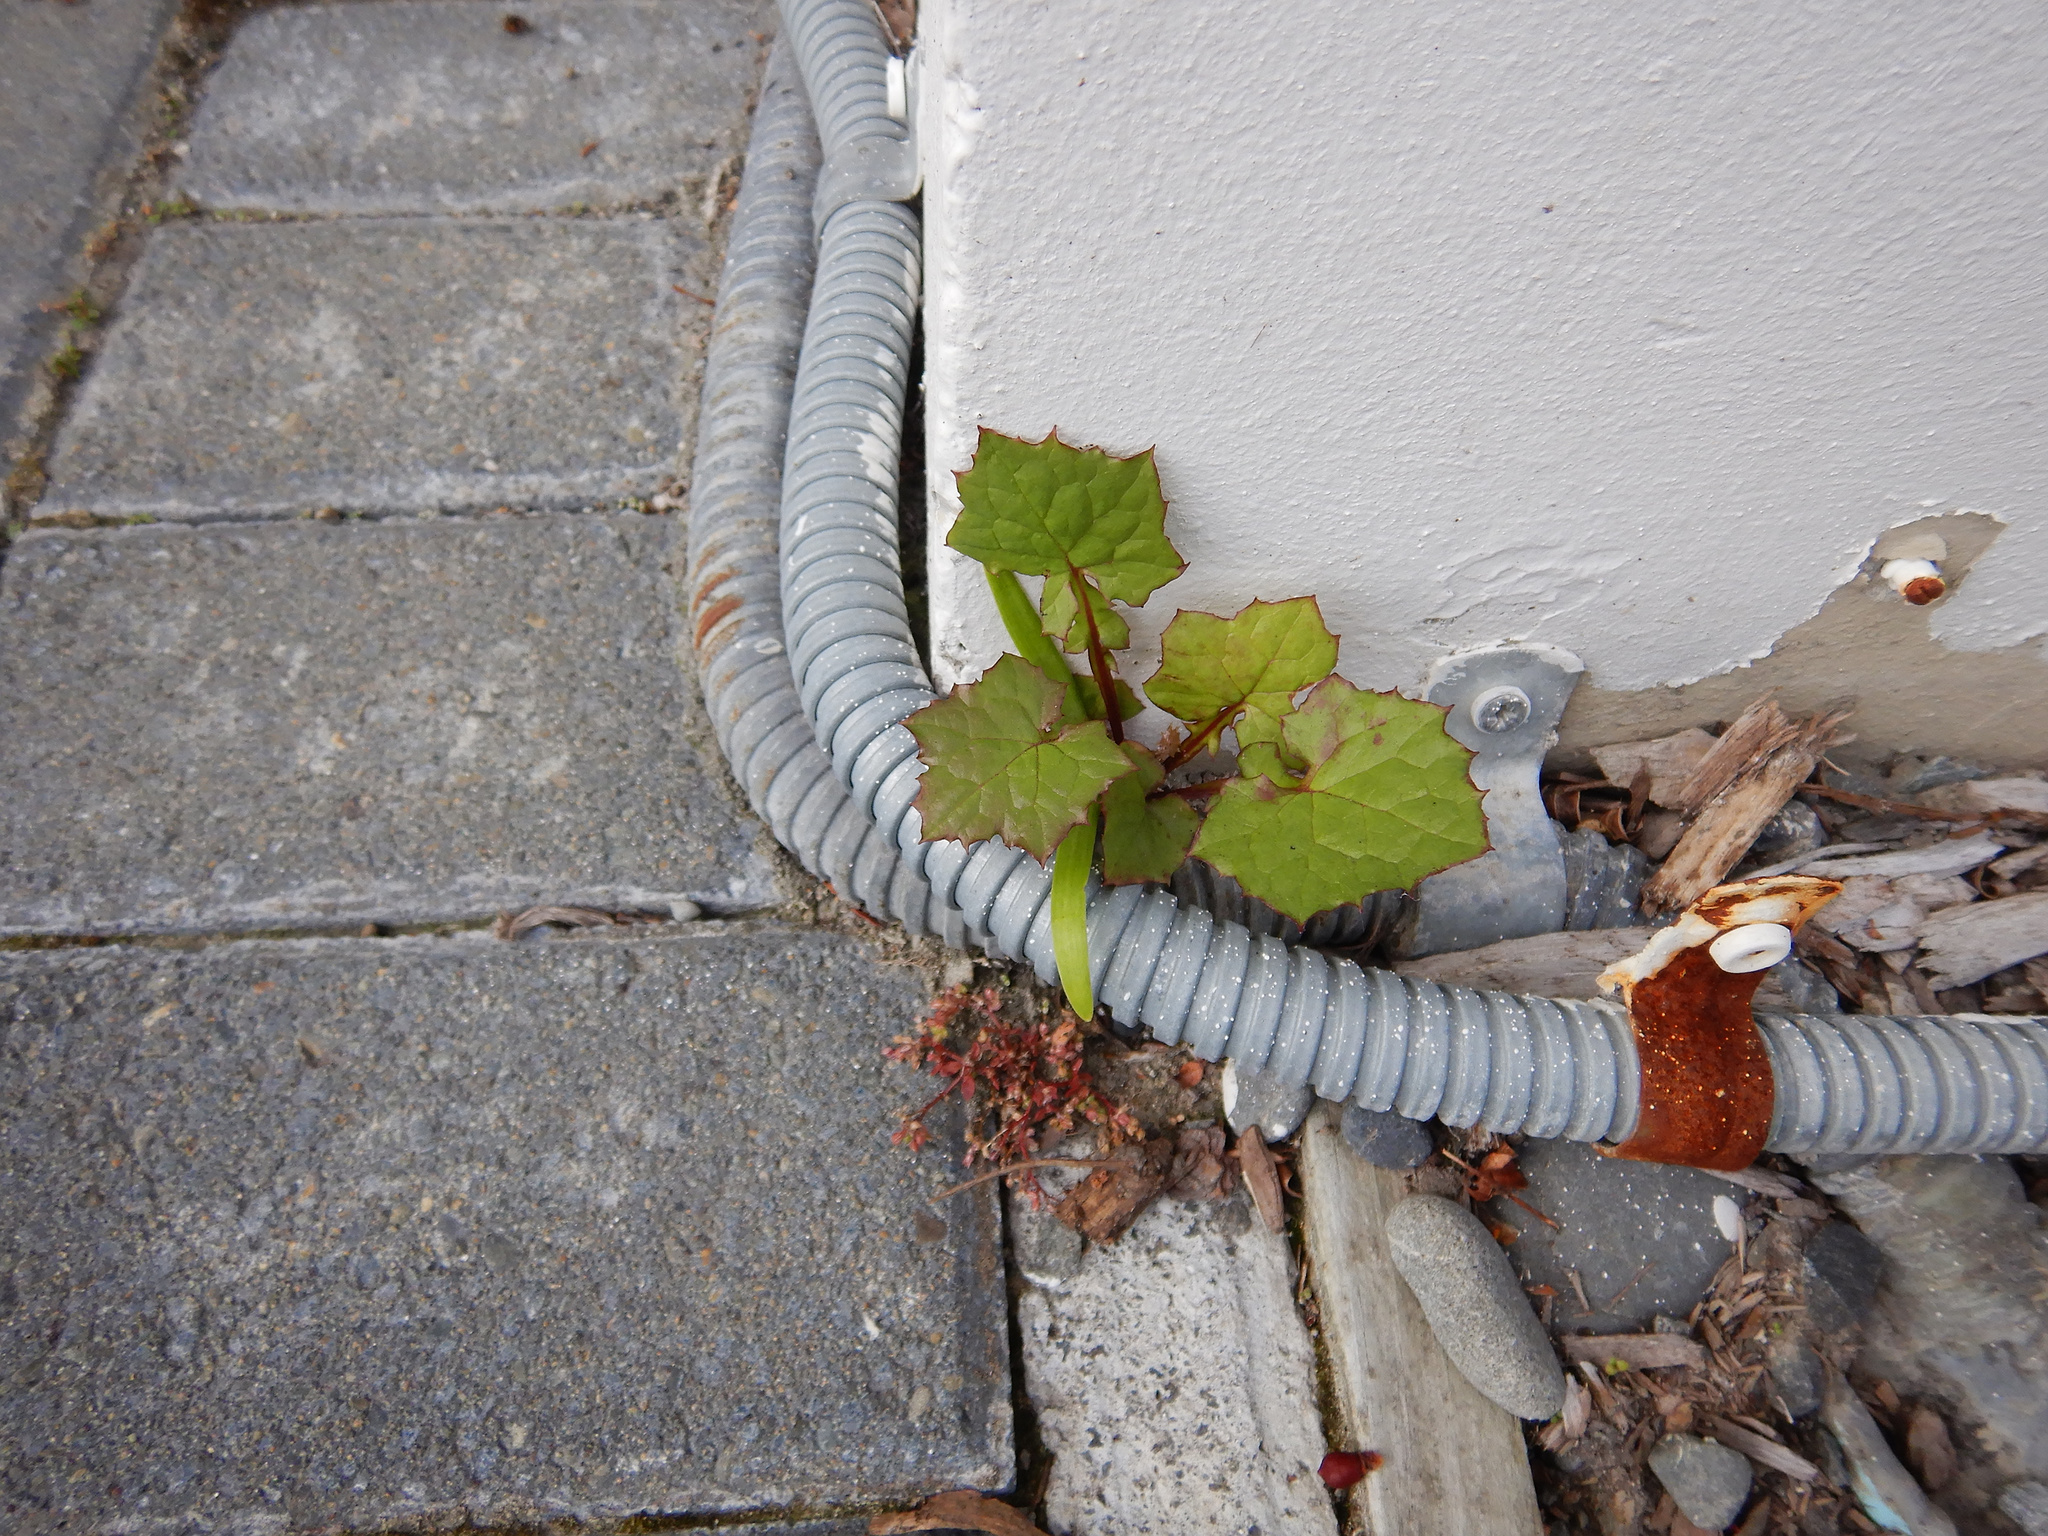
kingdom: Plantae
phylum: Tracheophyta
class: Magnoliopsida
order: Asterales
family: Asteraceae
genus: Mycelis
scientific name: Mycelis muralis
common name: Wall lettuce
